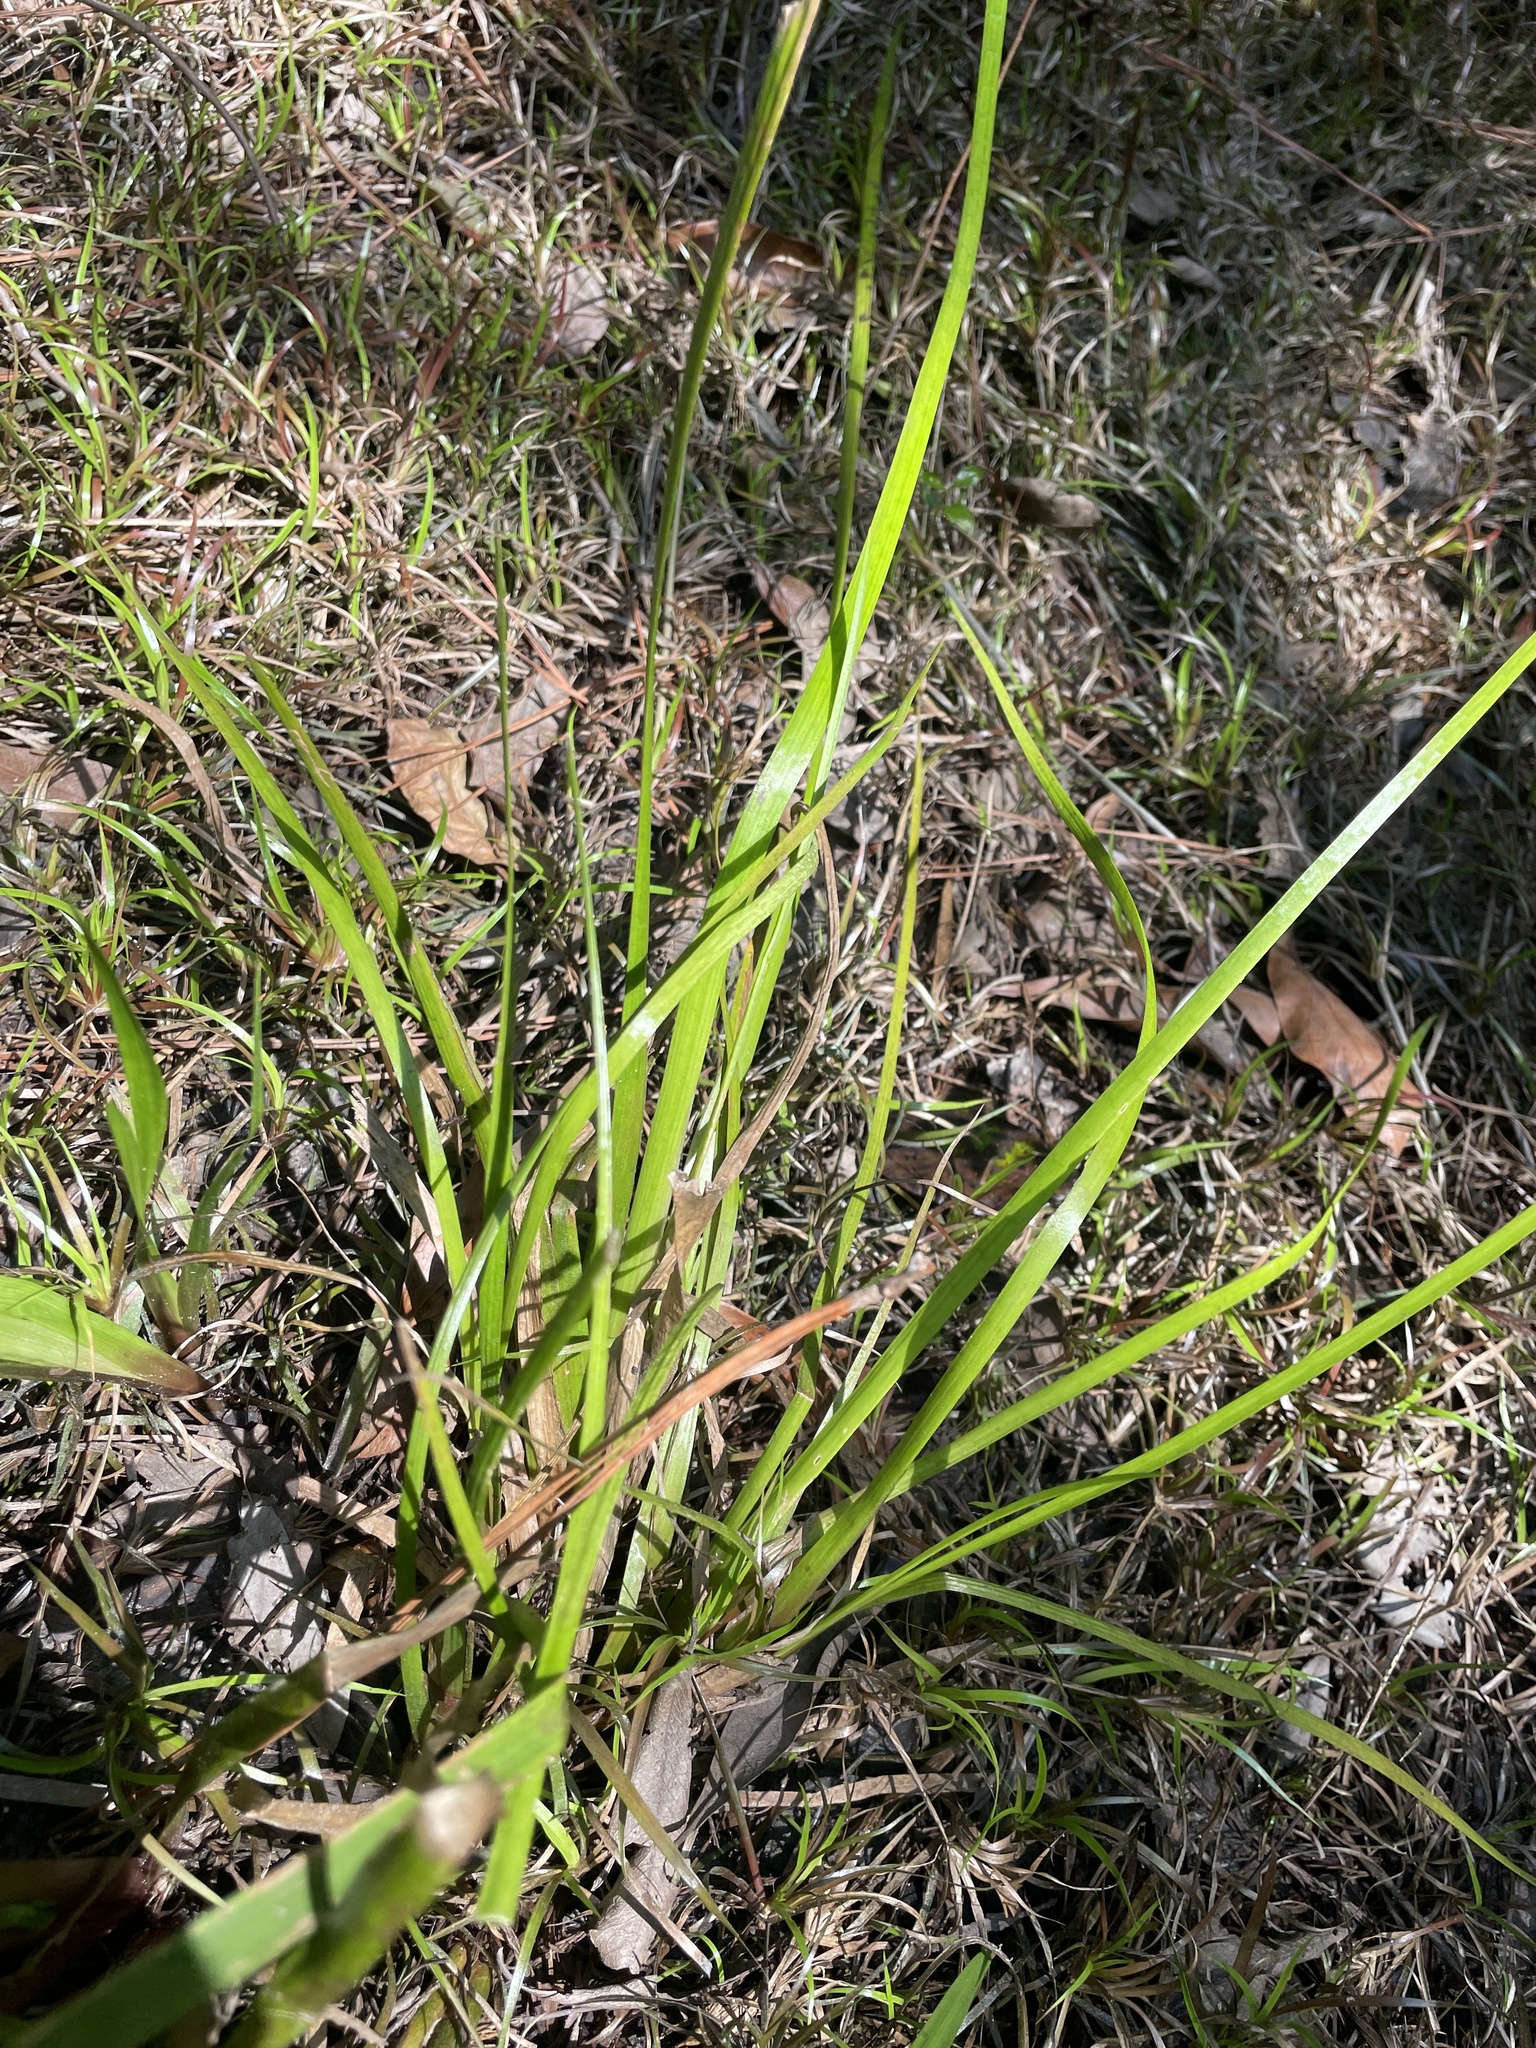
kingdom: Plantae
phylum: Tracheophyta
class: Liliopsida
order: Poales
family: Xyridaceae
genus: Xyris
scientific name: Xyris laxifolia
